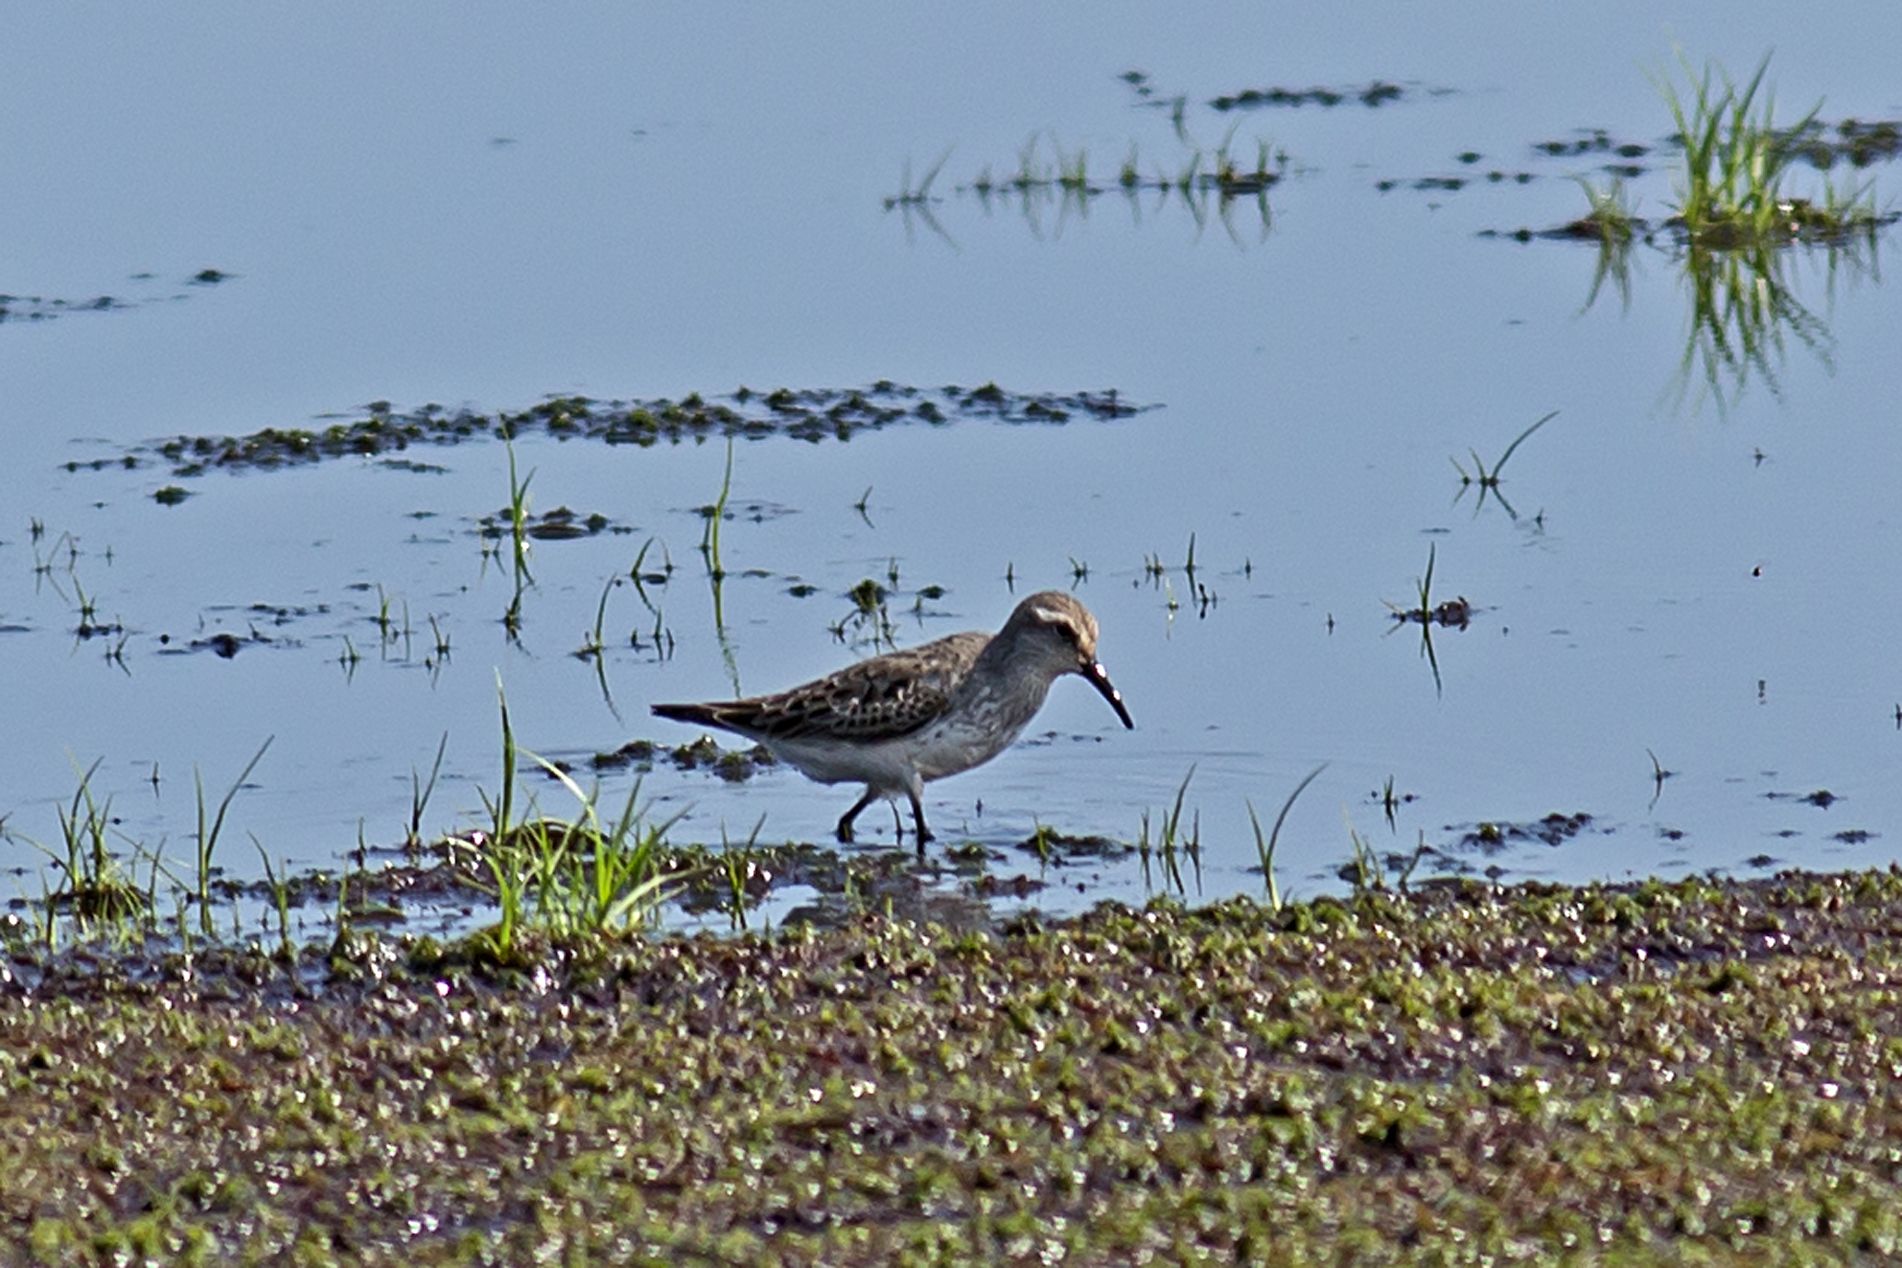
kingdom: Animalia
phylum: Chordata
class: Aves
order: Charadriiformes
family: Scolopacidae
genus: Calidris
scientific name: Calidris fuscicollis
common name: White-rumped sandpiper
